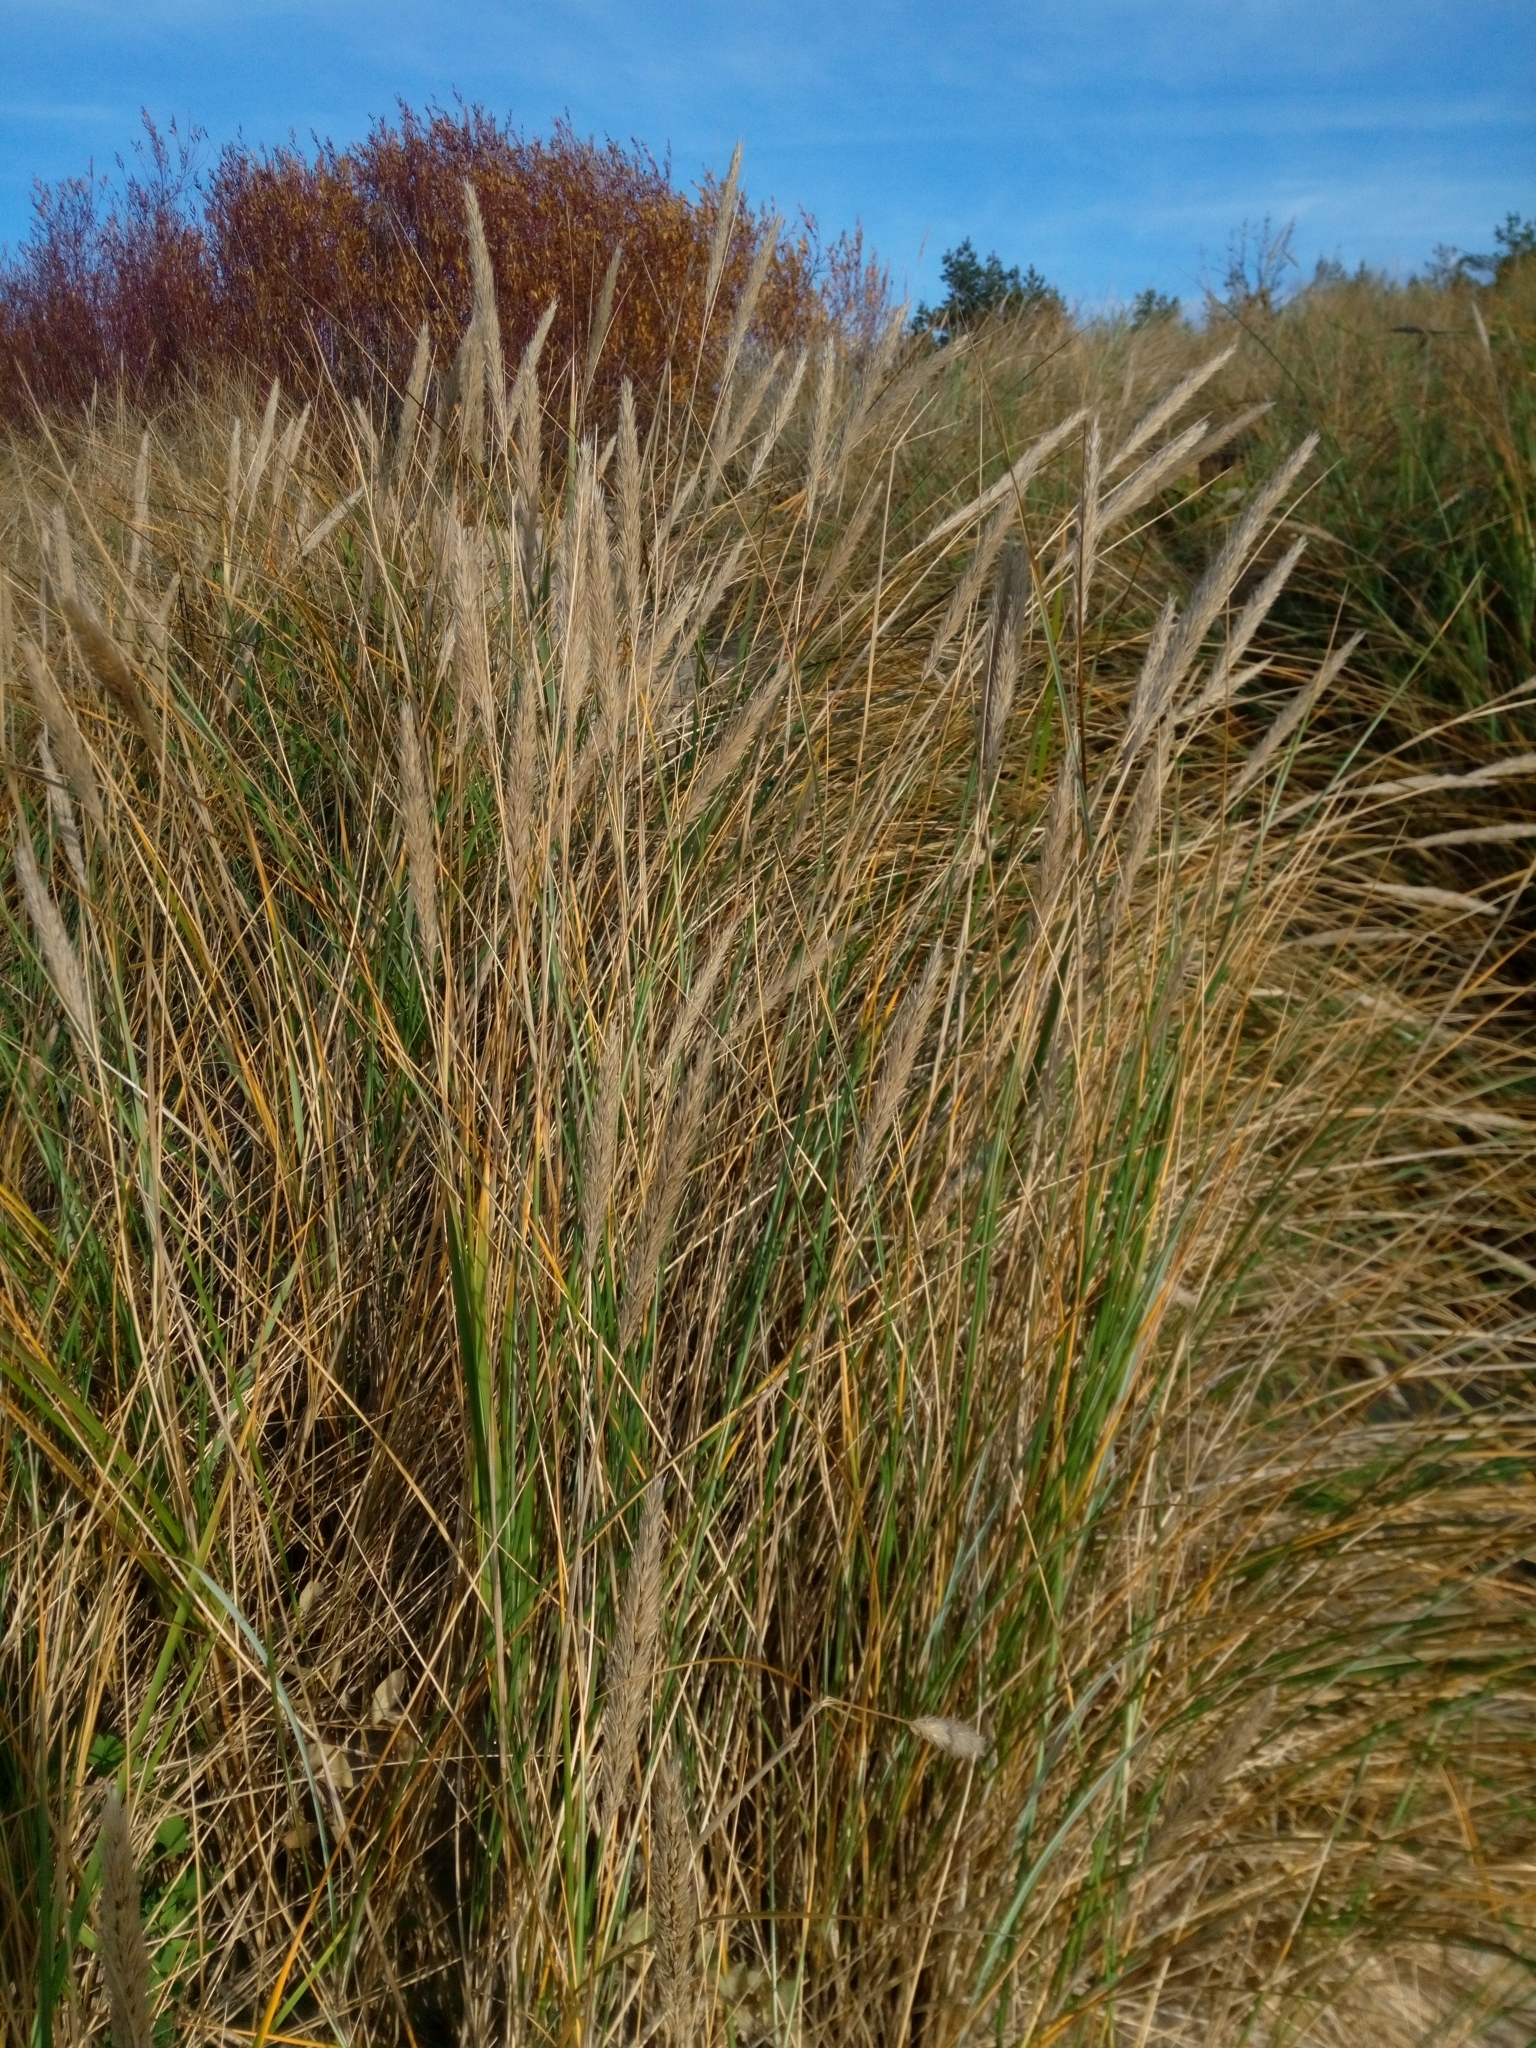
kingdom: Plantae
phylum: Tracheophyta
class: Liliopsida
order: Poales
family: Poaceae
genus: Calamagrostis
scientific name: Calamagrostis arenaria
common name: European beachgrass
